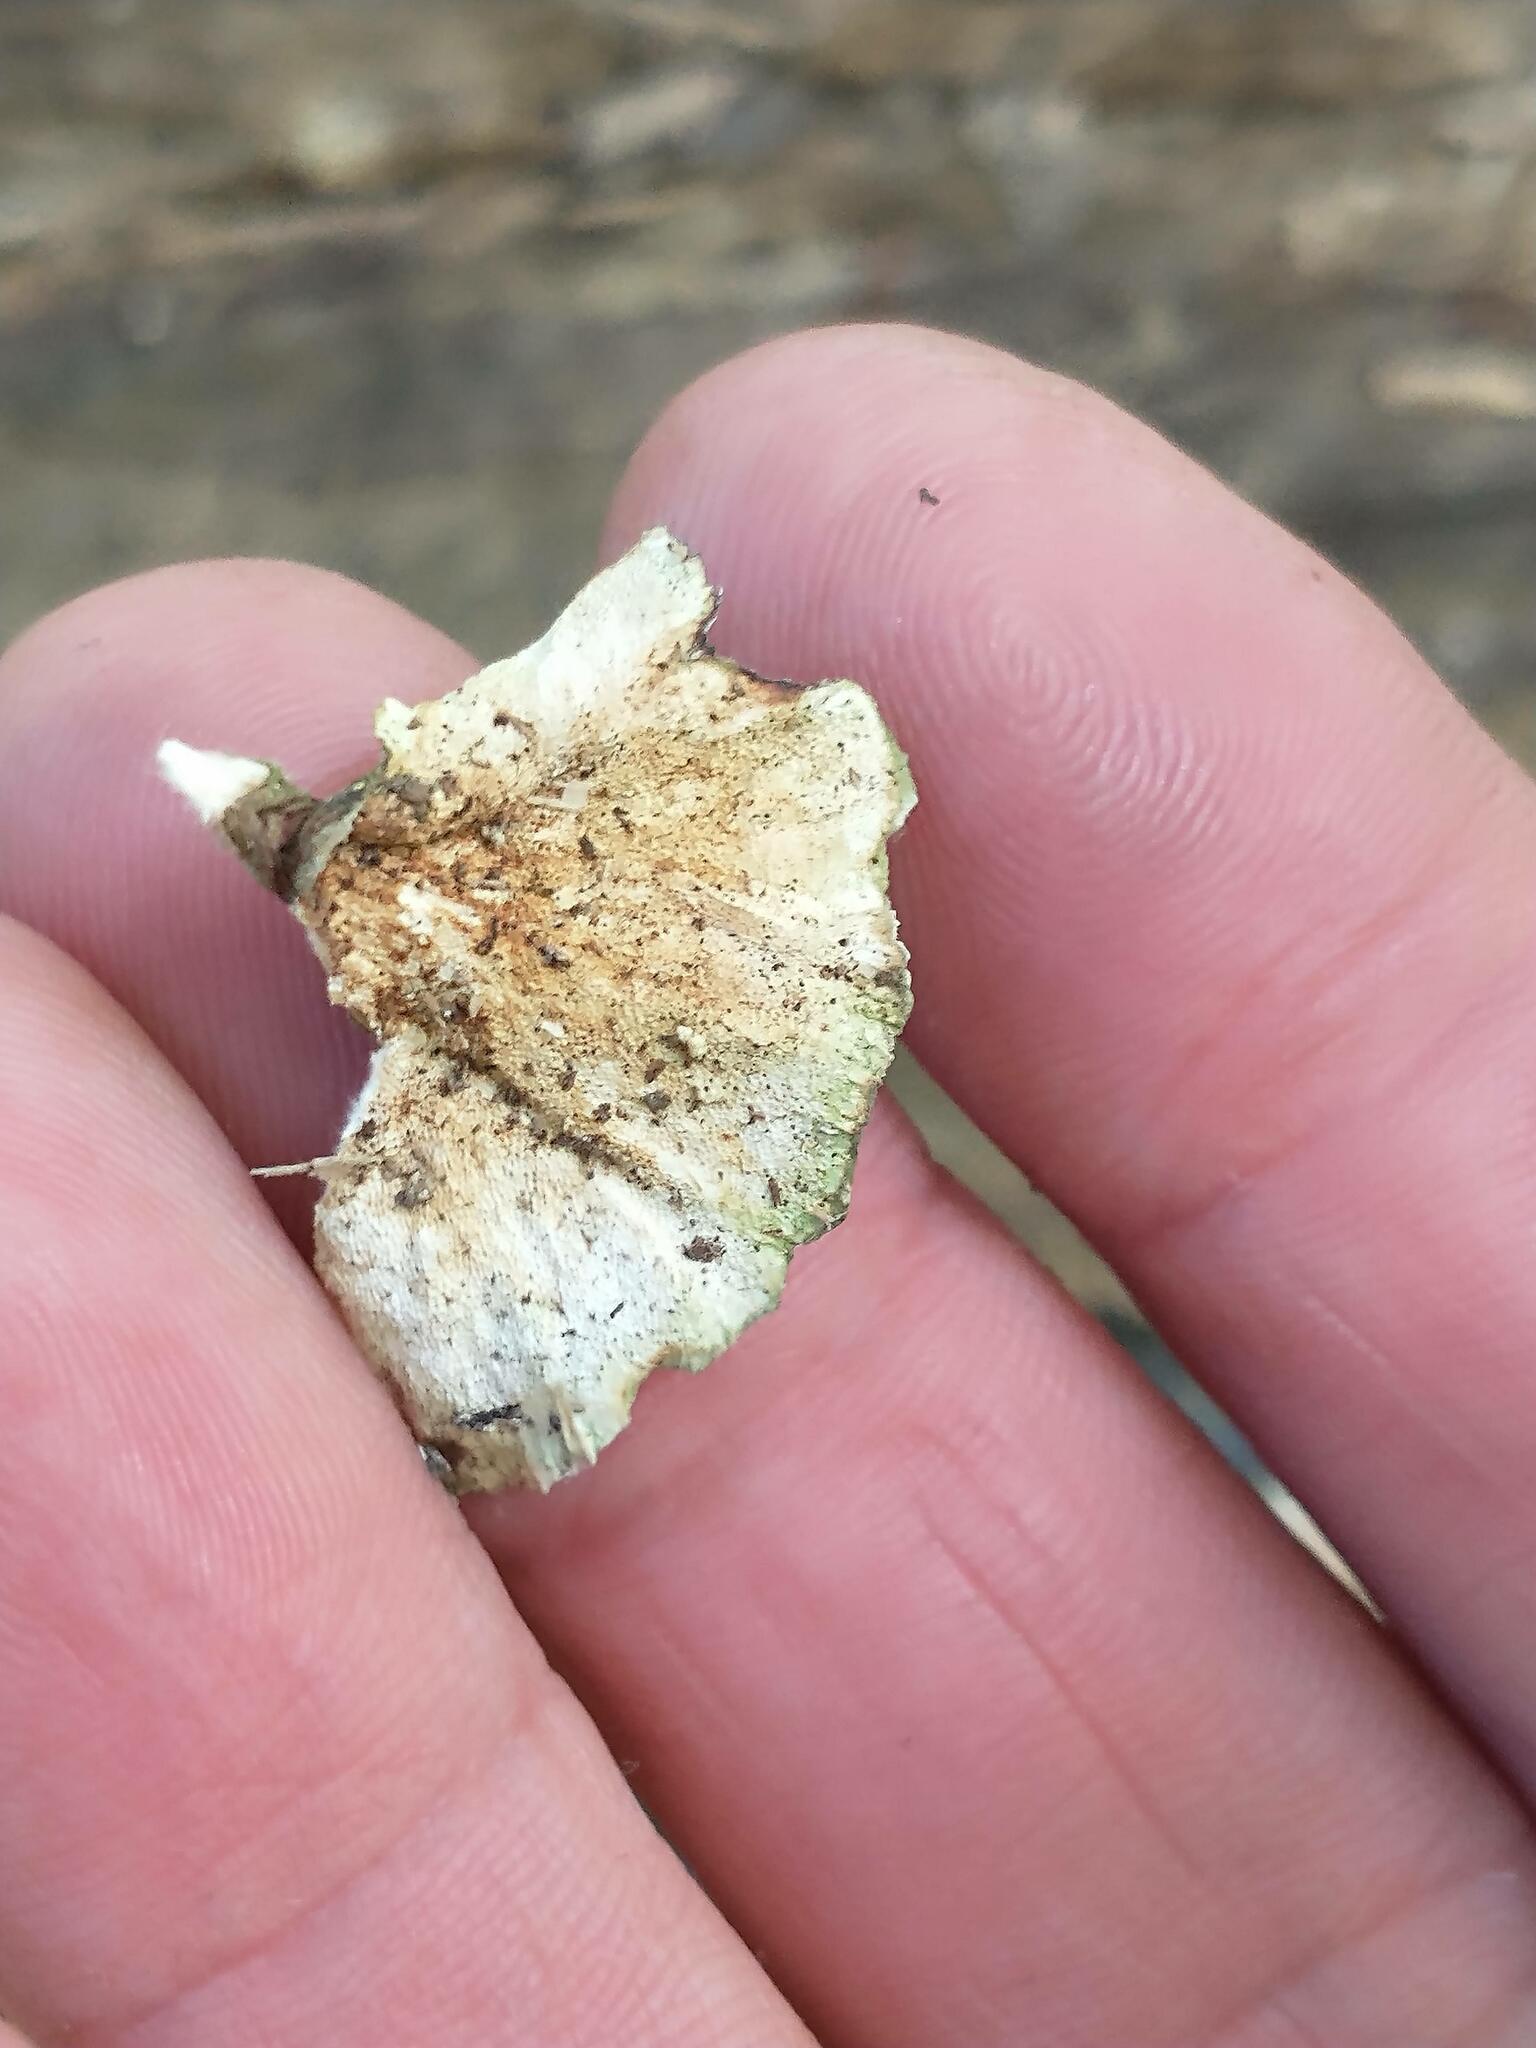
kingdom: Fungi
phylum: Basidiomycota
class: Agaricomycetes
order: Polyporales
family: Polyporaceae
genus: Trametes
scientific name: Trametes versicolor
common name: Turkeytail
